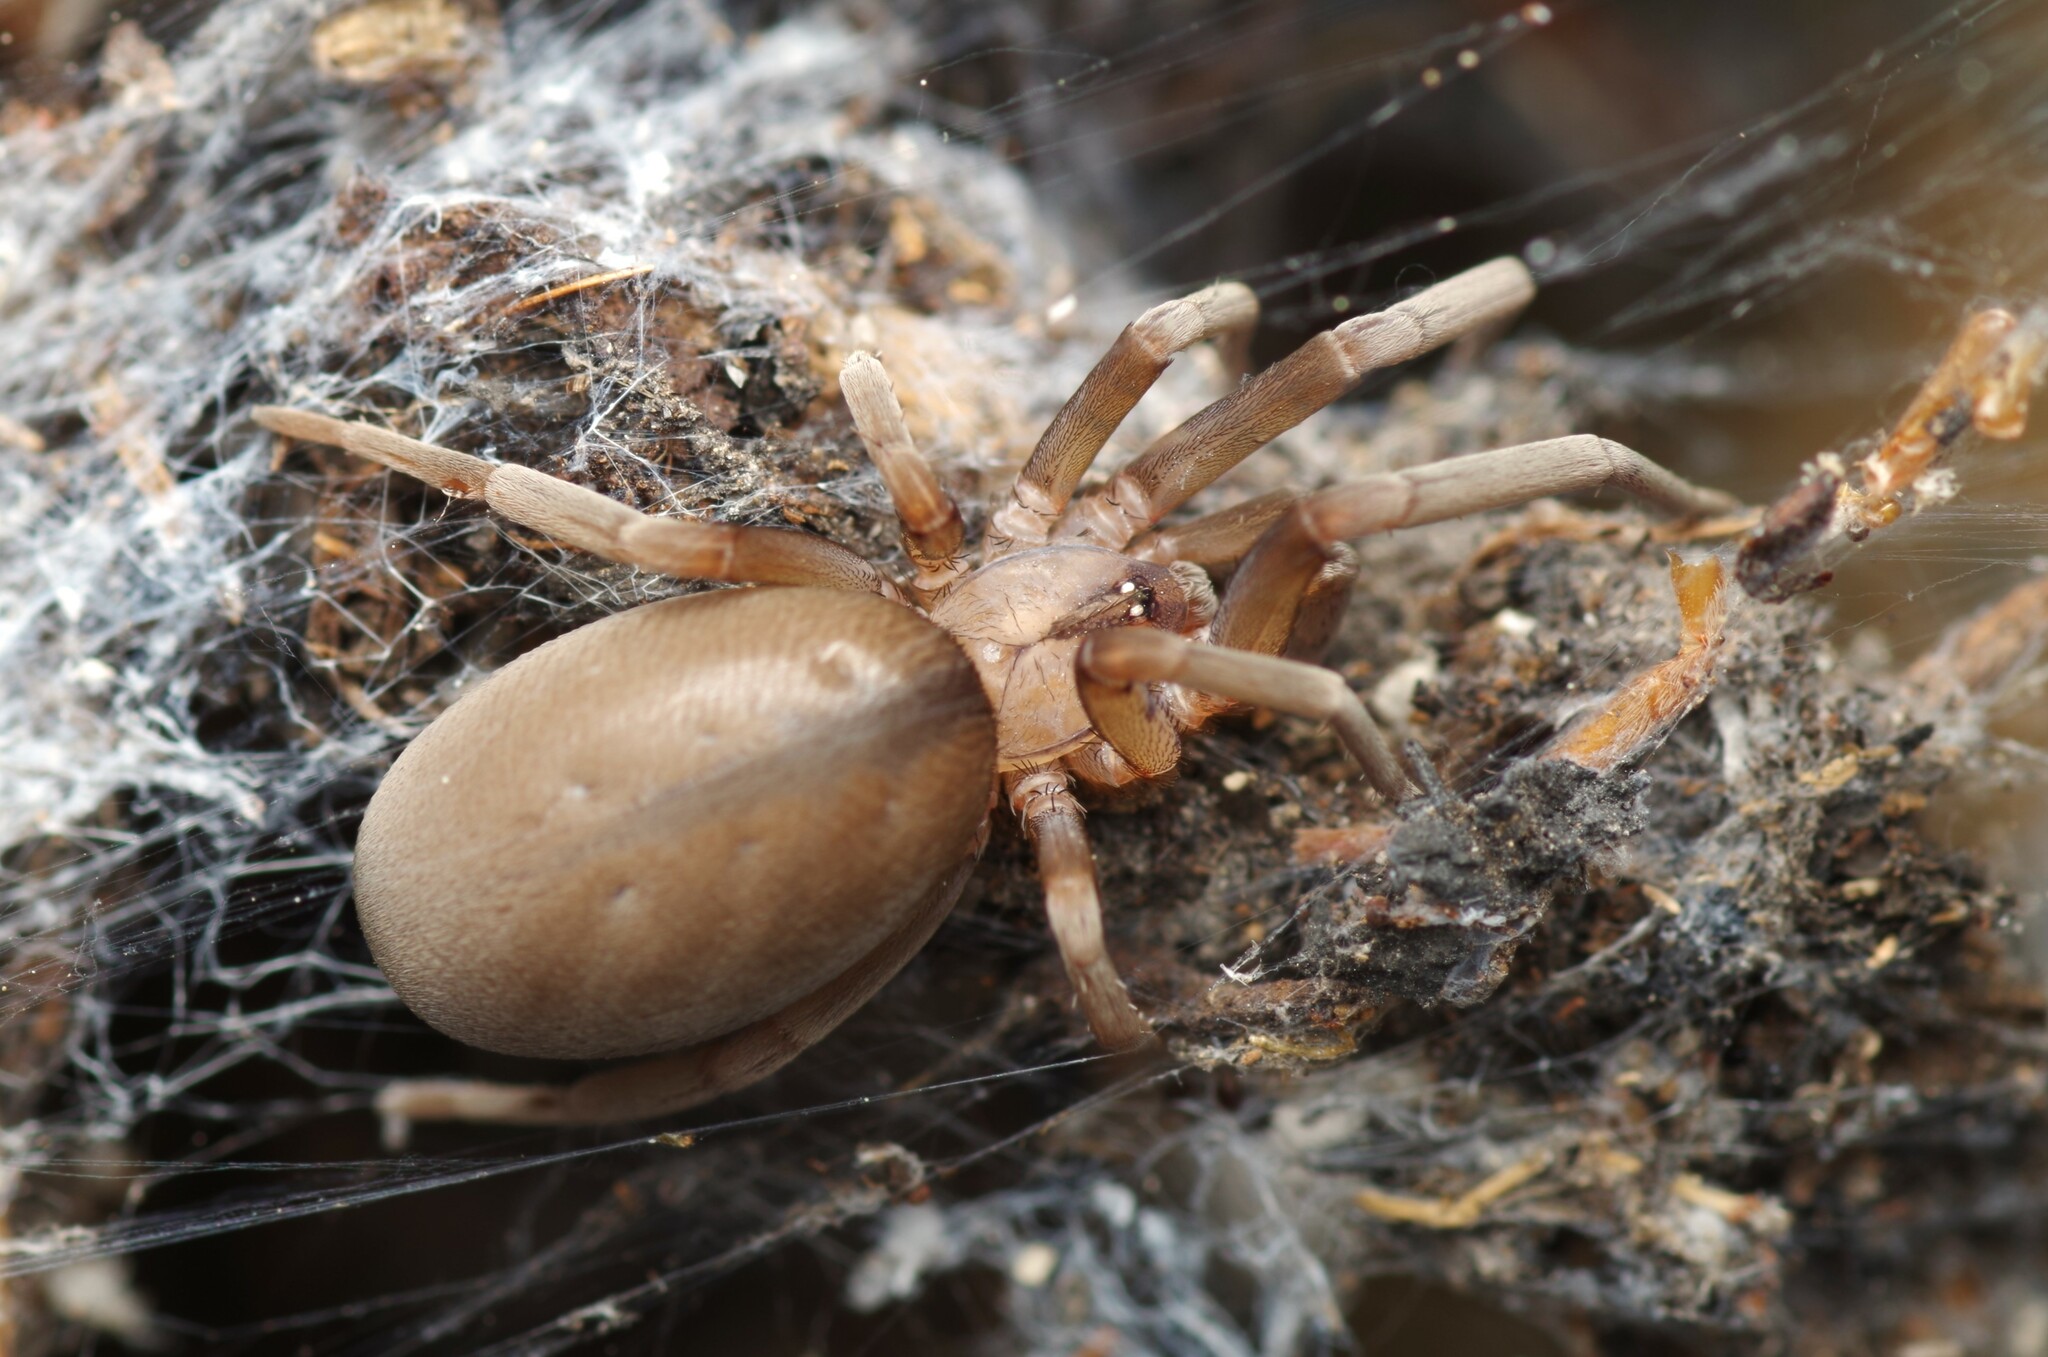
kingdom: Animalia
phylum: Arthropoda
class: Arachnida
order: Araneae
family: Filistatidae
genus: Filistata
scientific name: Filistata insidiatrix
